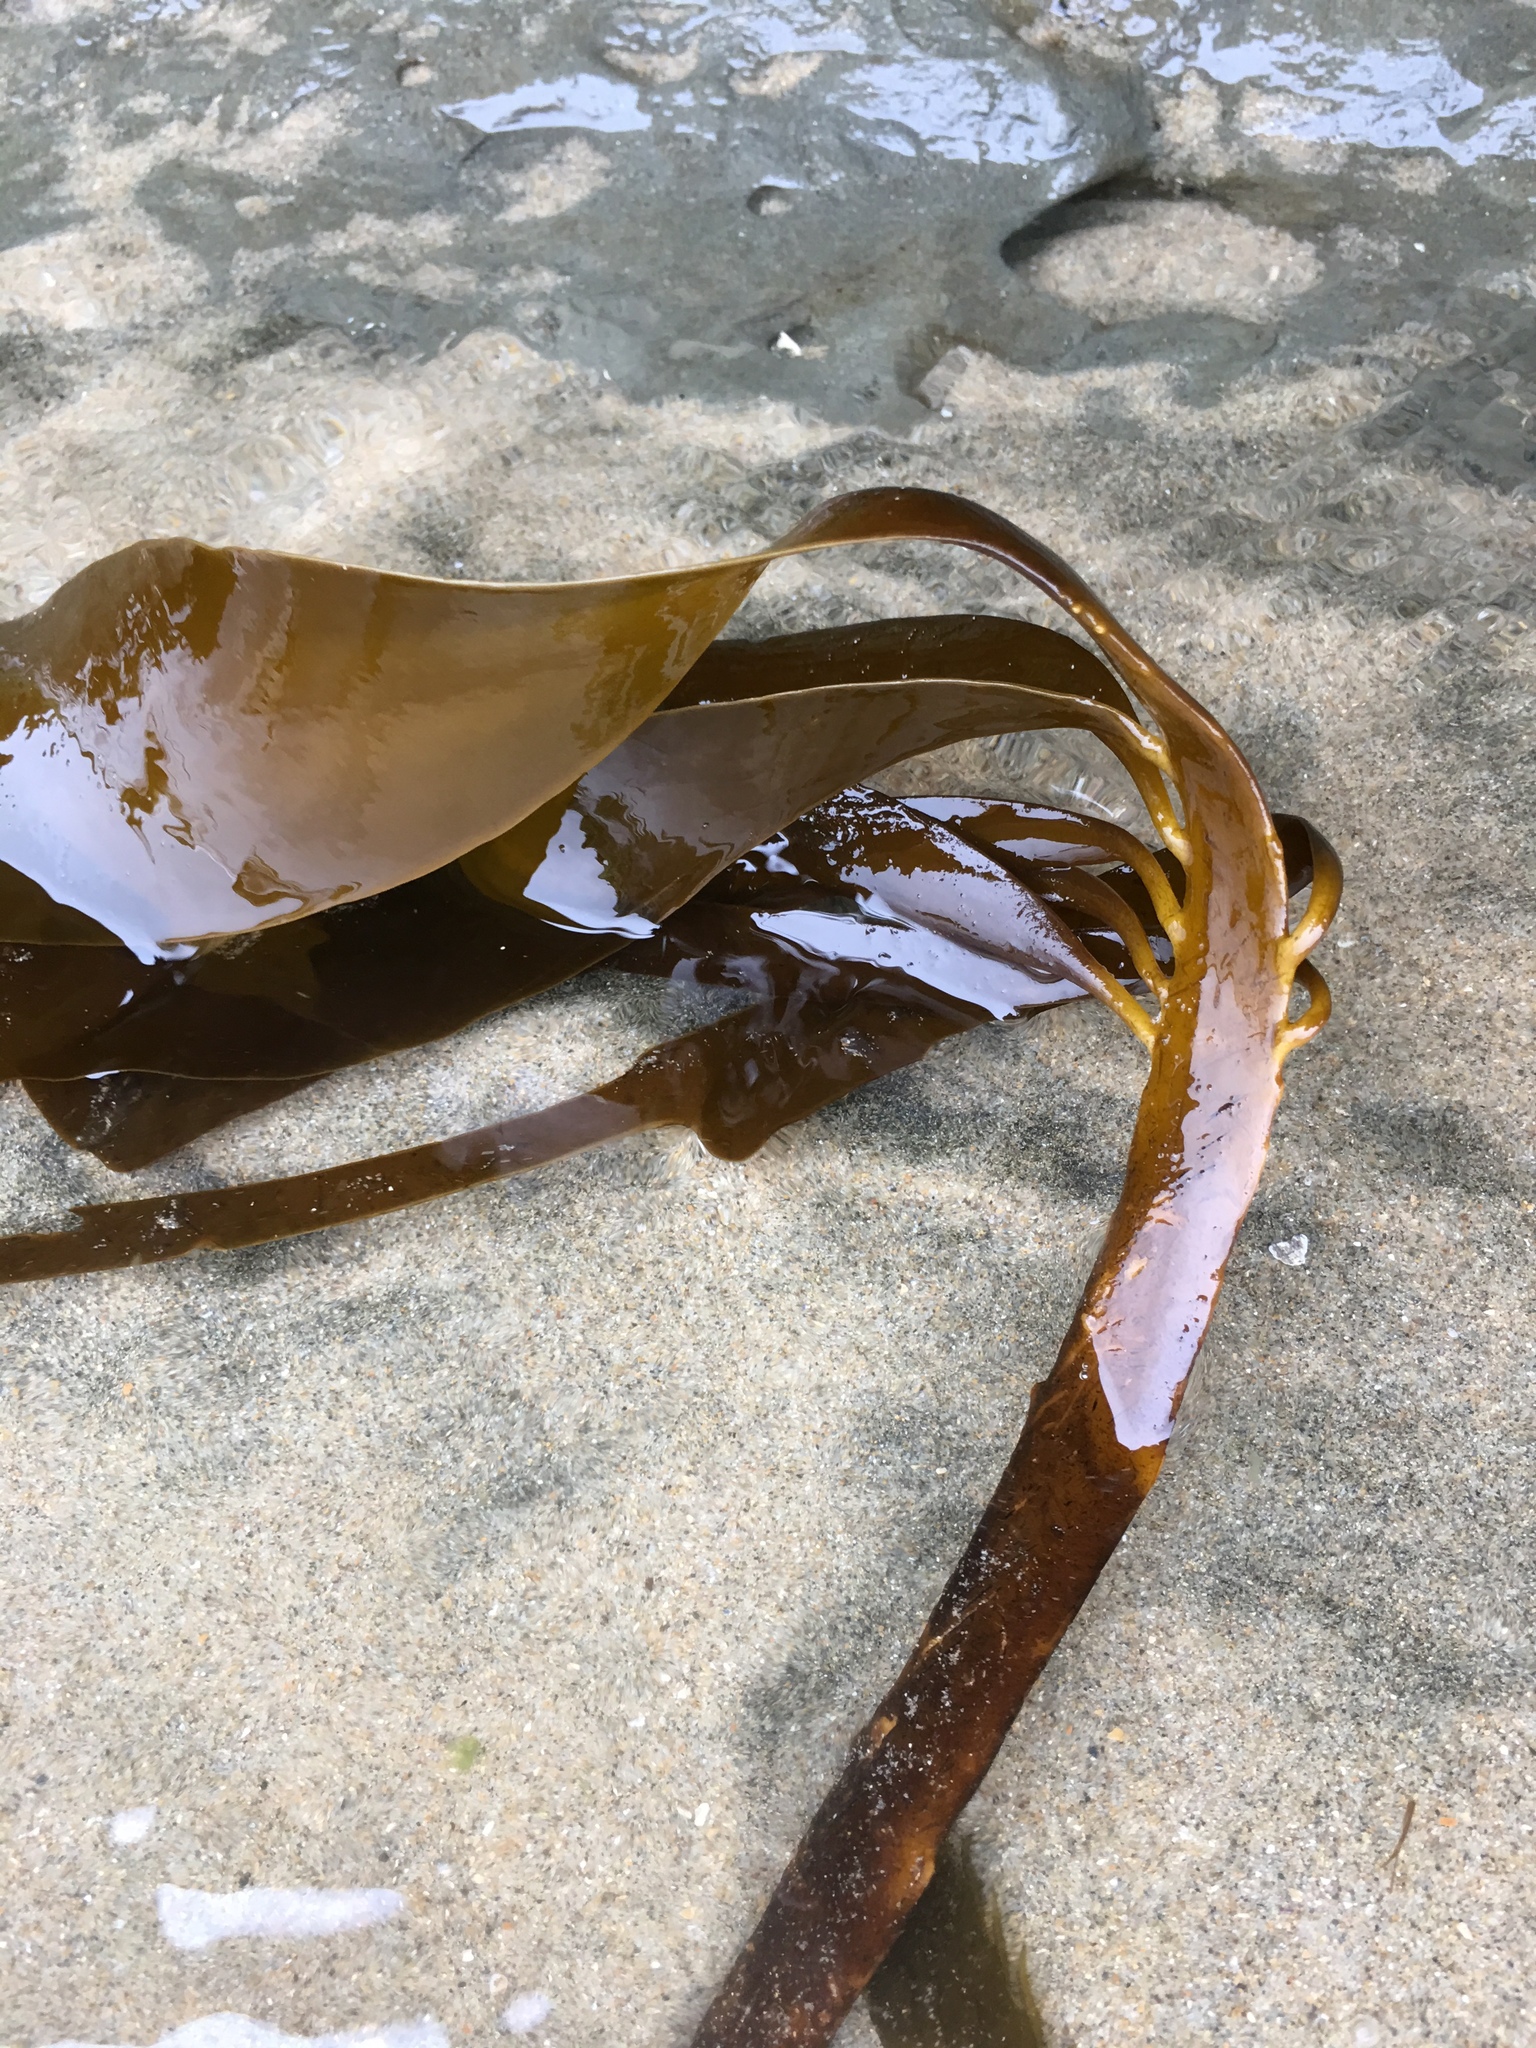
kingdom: Chromista
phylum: Ochrophyta
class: Phaeophyceae
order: Laminariales
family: Alariaceae
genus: Pterygophora
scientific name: Pterygophora californica
